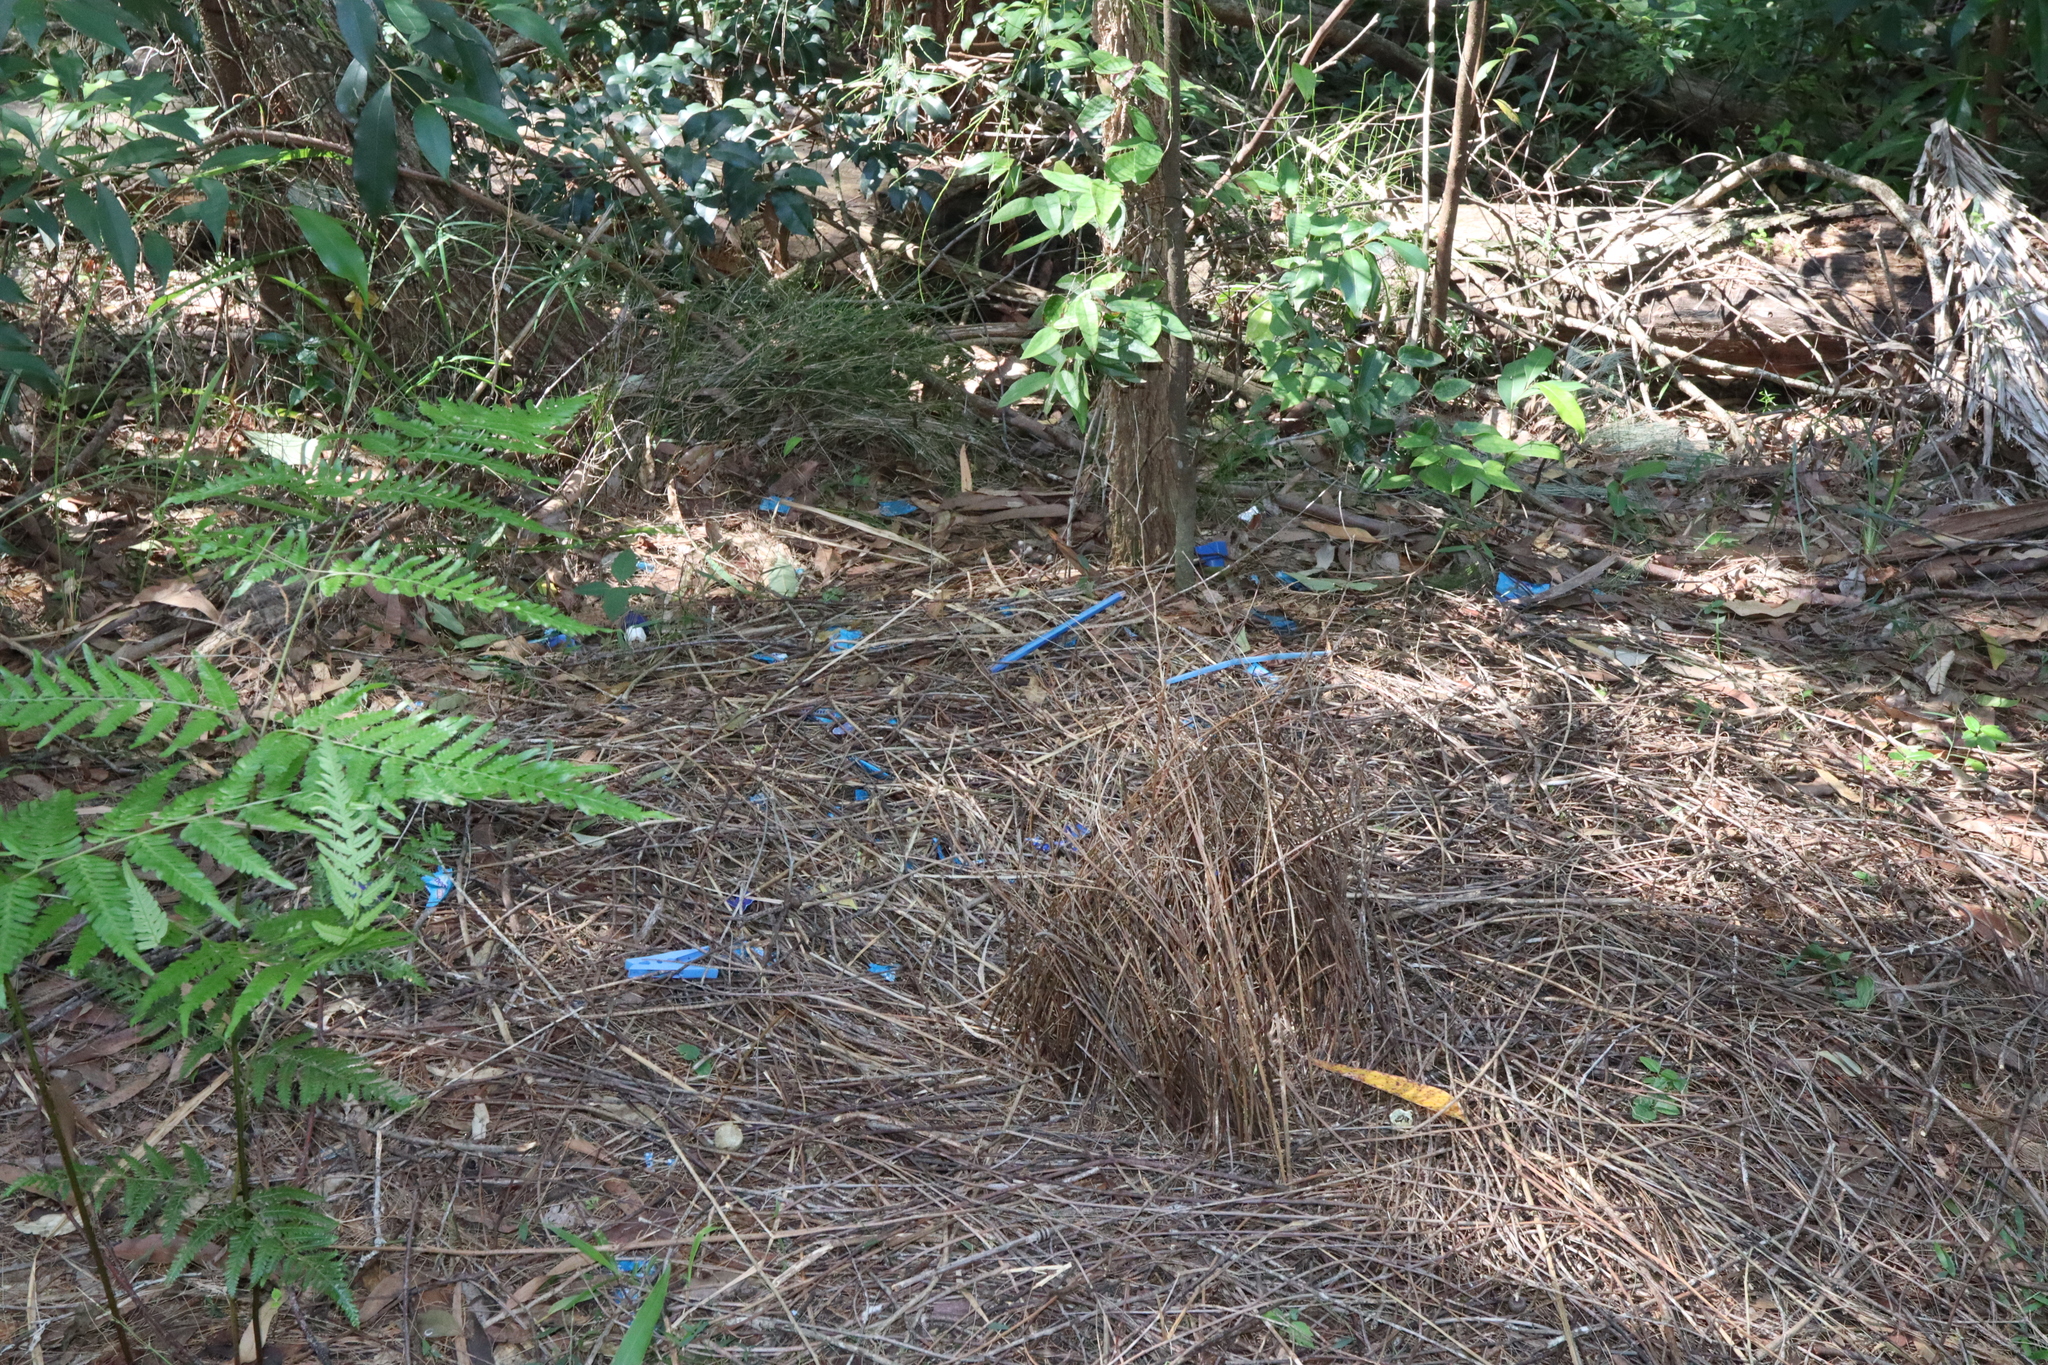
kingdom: Animalia
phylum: Chordata
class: Aves
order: Passeriformes
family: Ptilonorhynchidae
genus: Ptilonorhynchus
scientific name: Ptilonorhynchus violaceus
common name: Satin bowerbird
